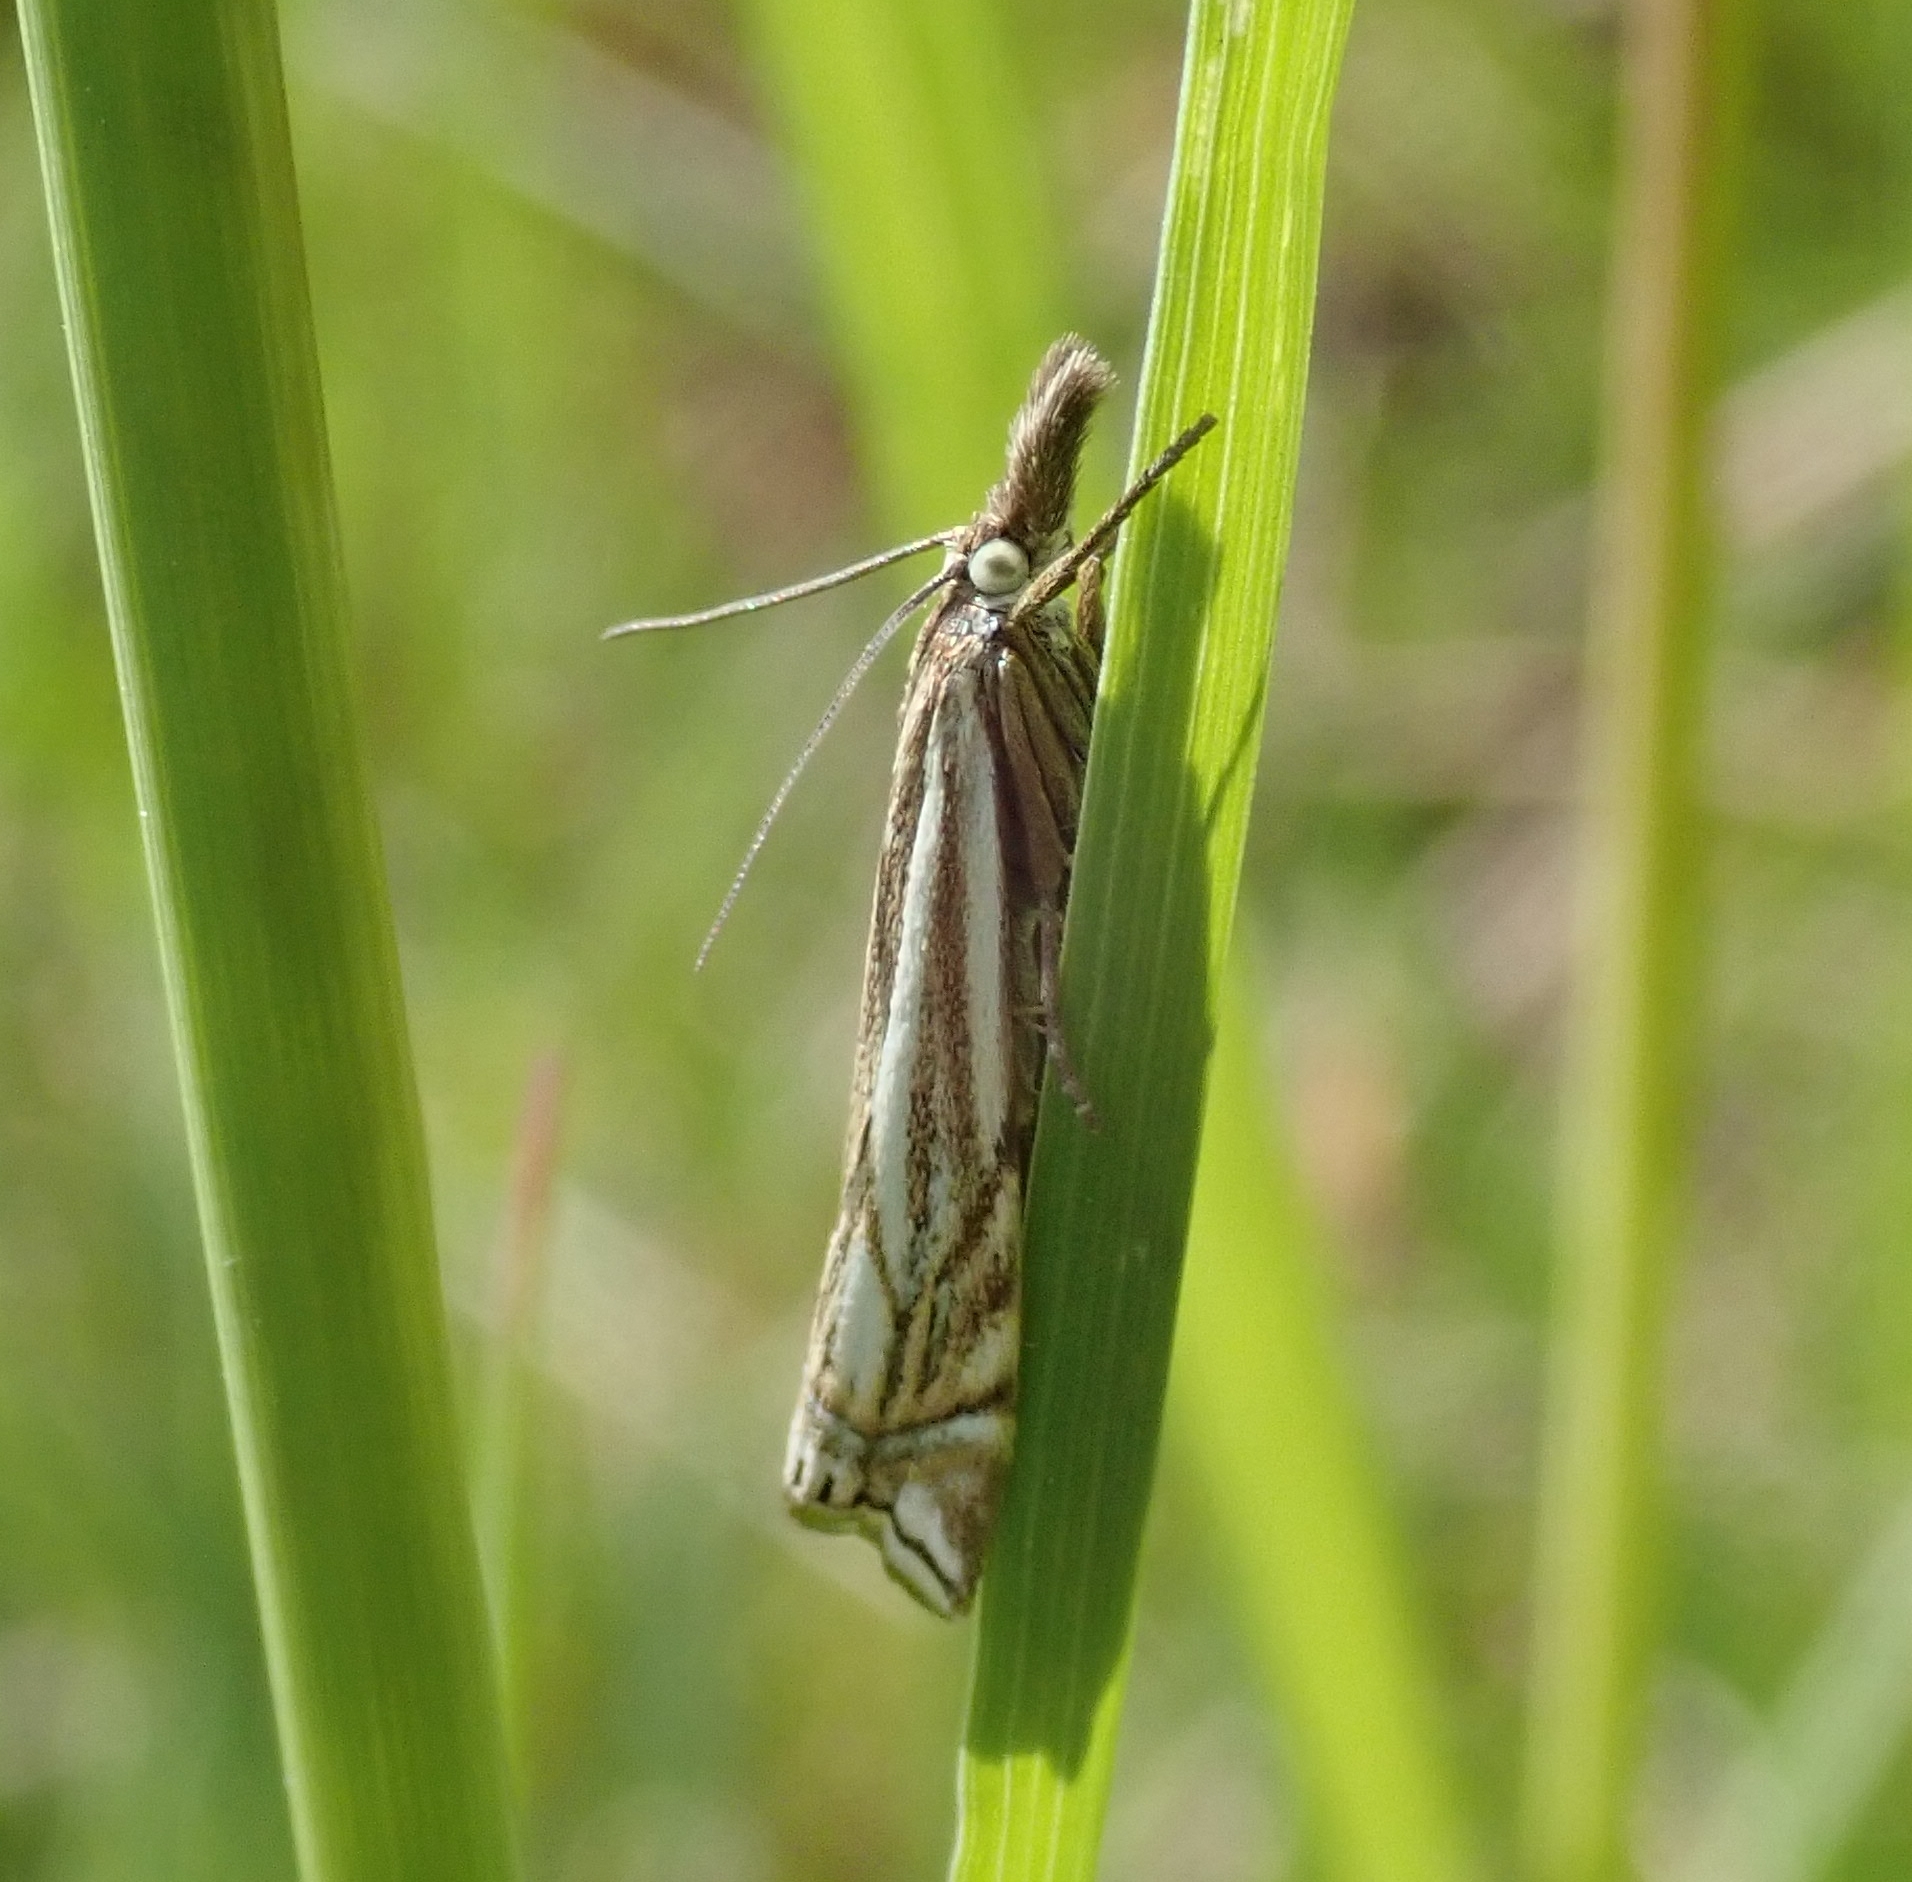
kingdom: Animalia
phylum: Arthropoda
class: Insecta
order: Lepidoptera
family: Crambidae
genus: Crambus
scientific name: Crambus nemorella
